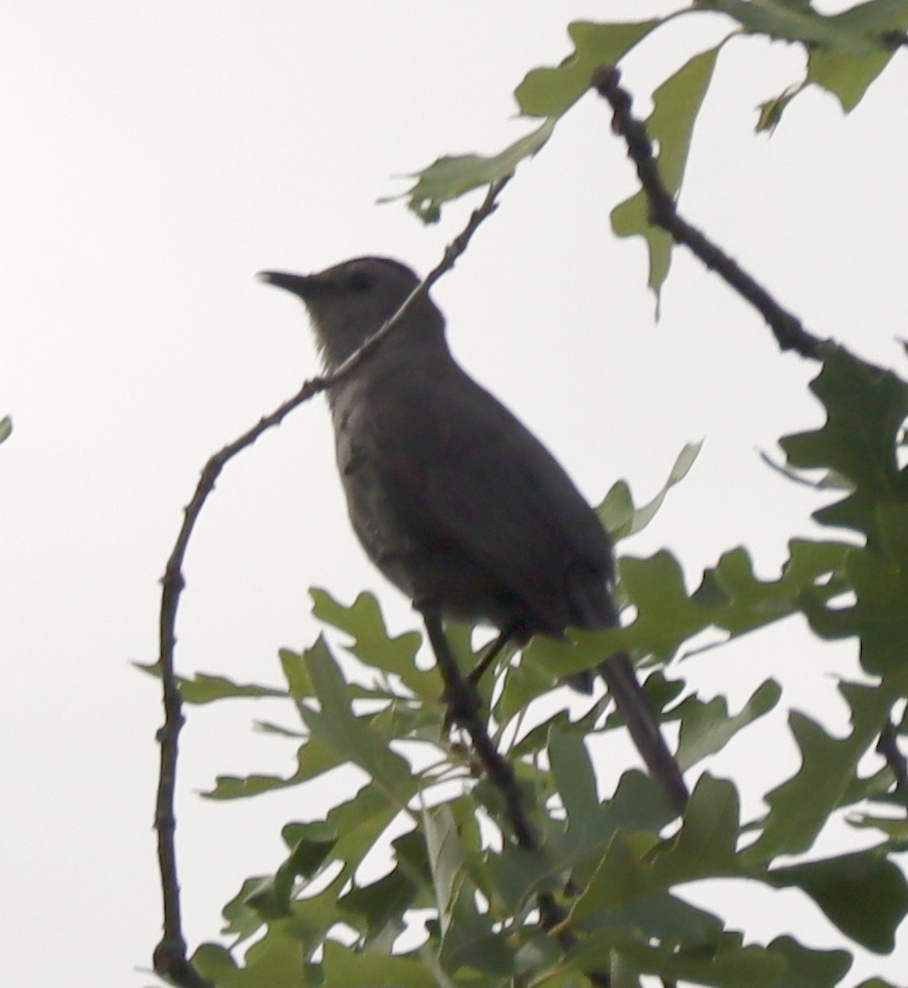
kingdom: Animalia
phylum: Chordata
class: Aves
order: Passeriformes
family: Mimidae
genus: Dumetella
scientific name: Dumetella carolinensis
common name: Gray catbird
